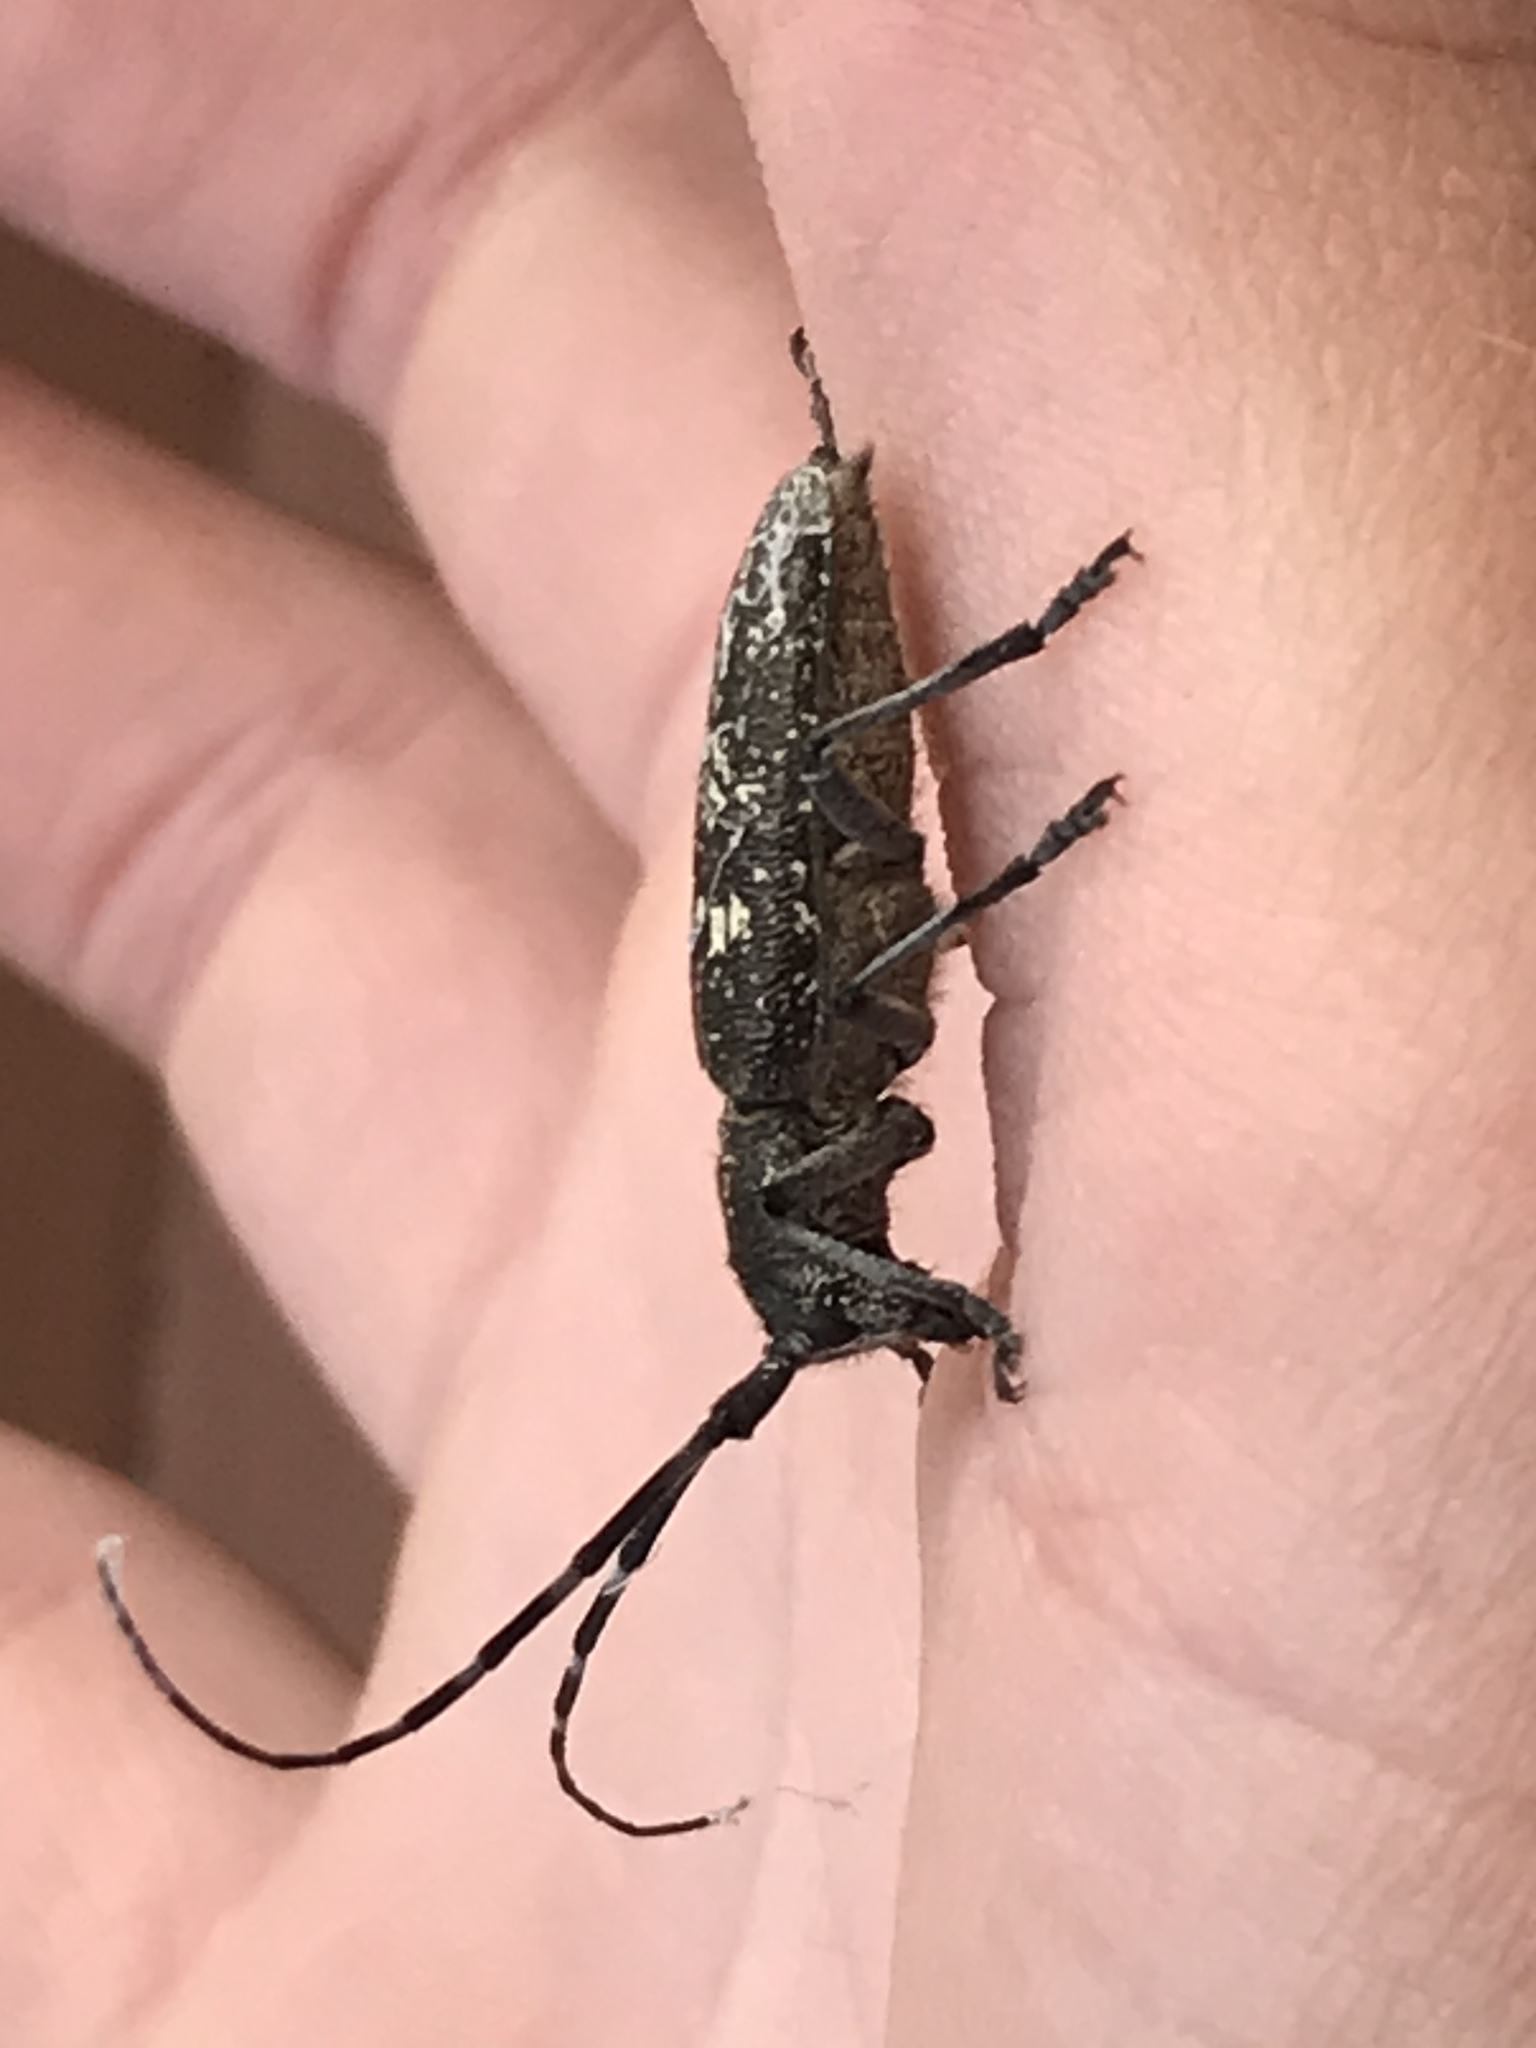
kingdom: Animalia
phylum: Arthropoda
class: Insecta
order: Coleoptera
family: Cerambycidae
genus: Monochamus
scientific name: Monochamus scutellatus
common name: White-spotted sawyer beetle
